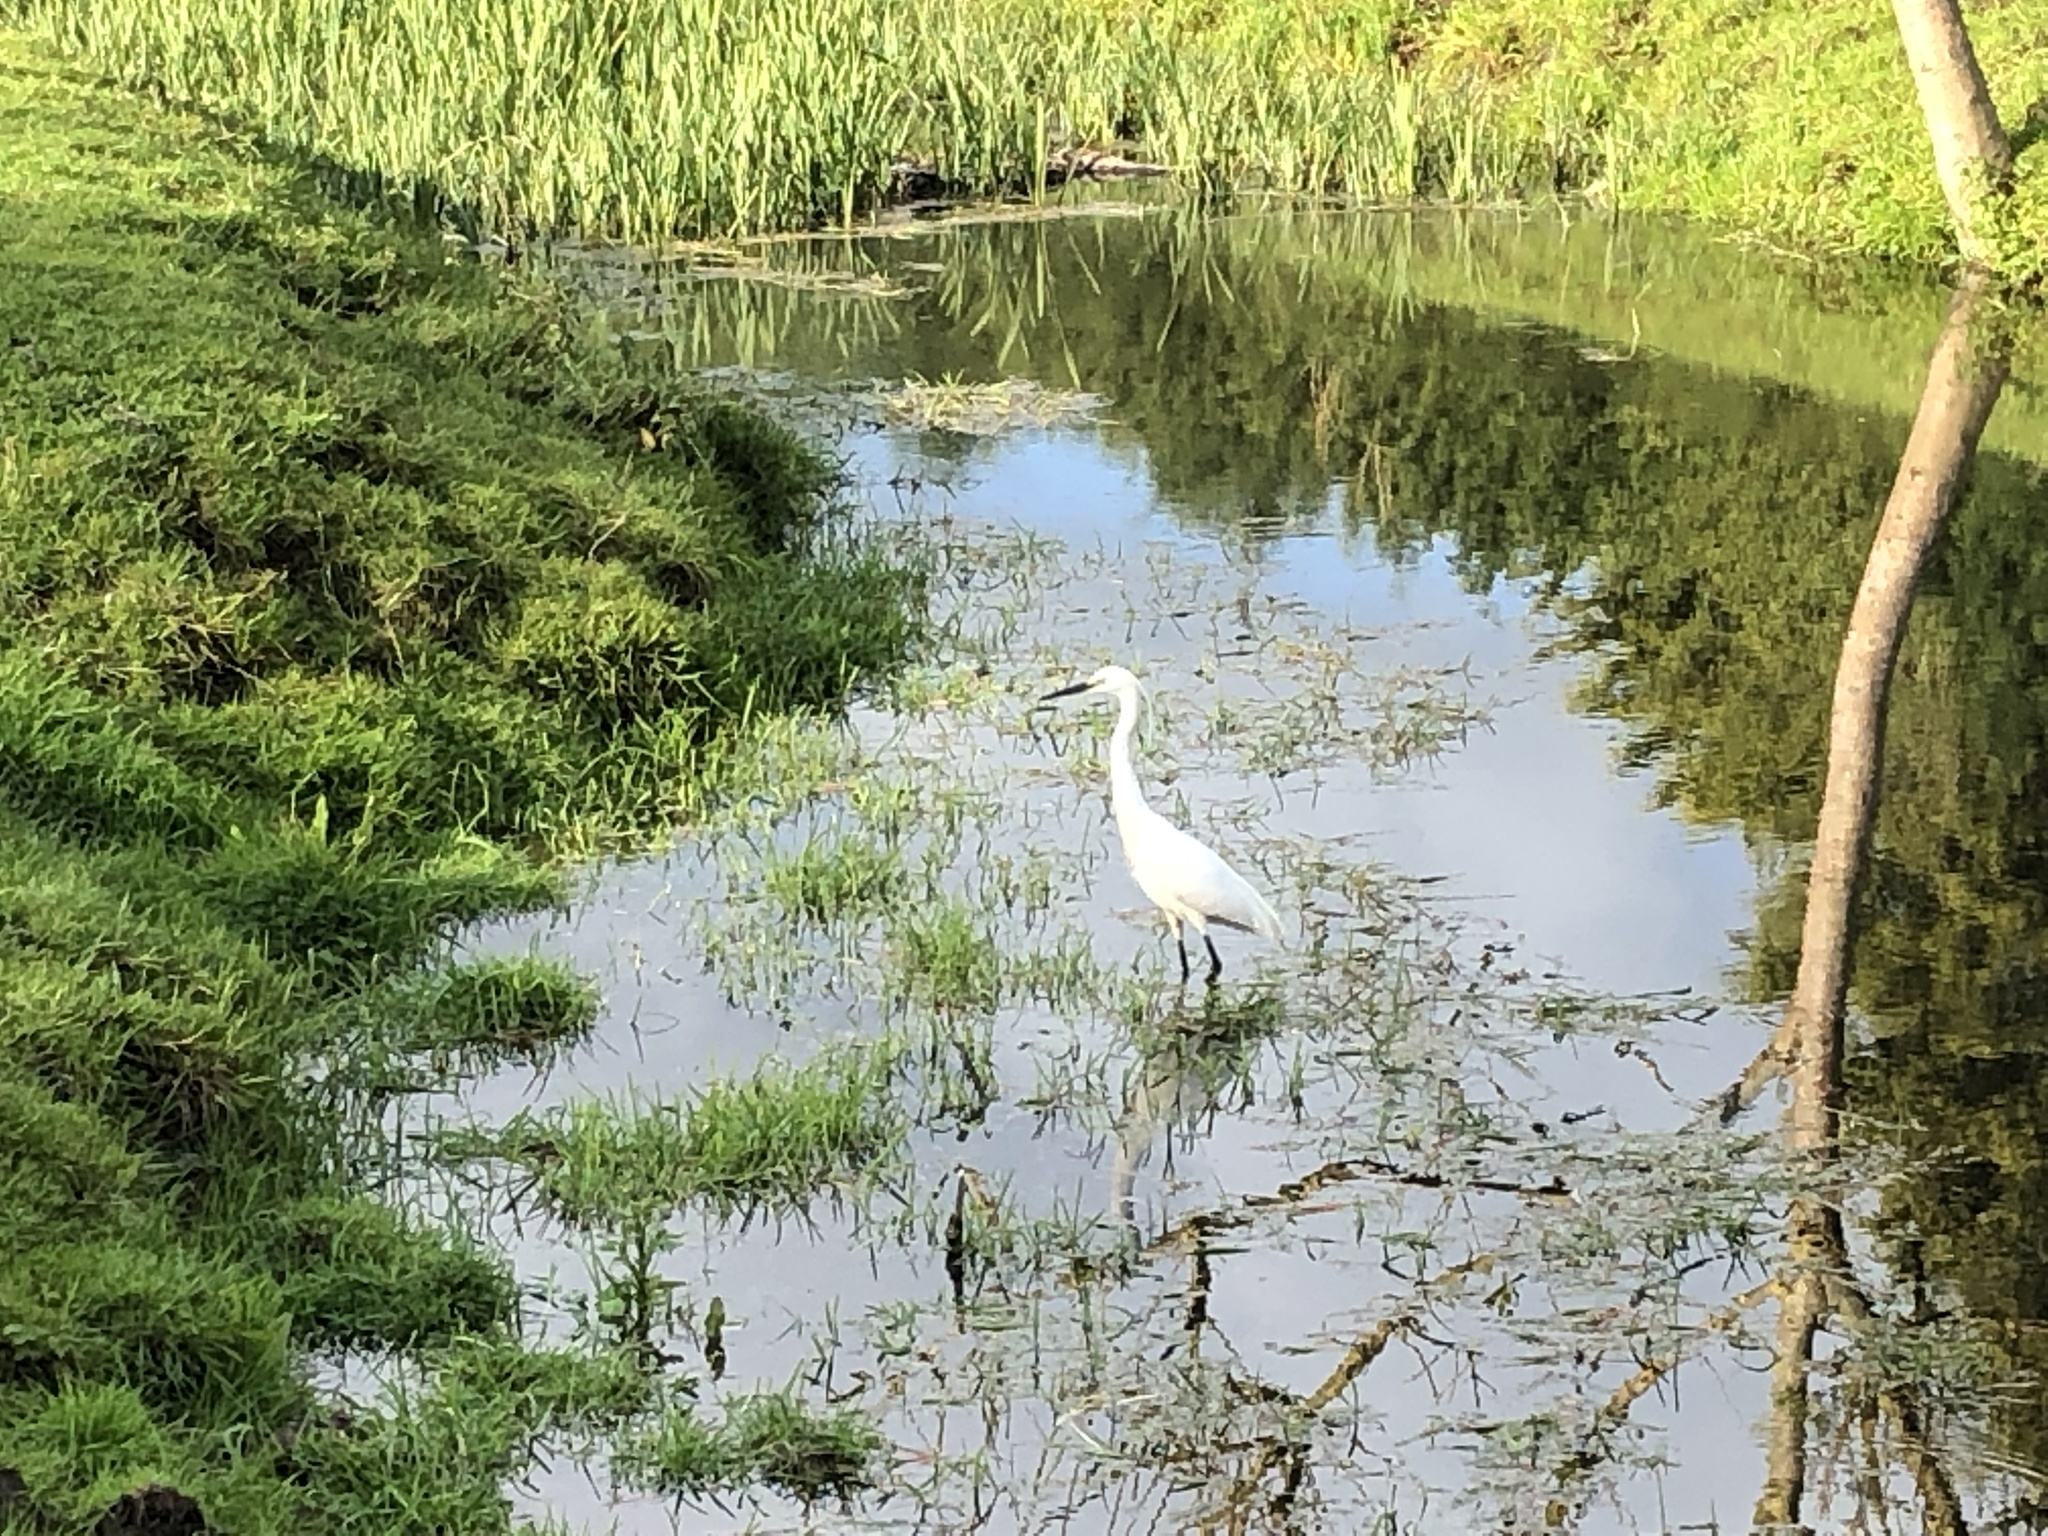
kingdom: Animalia
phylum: Chordata
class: Aves
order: Pelecaniformes
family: Ardeidae
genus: Egretta
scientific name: Egretta garzetta
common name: Little egret
